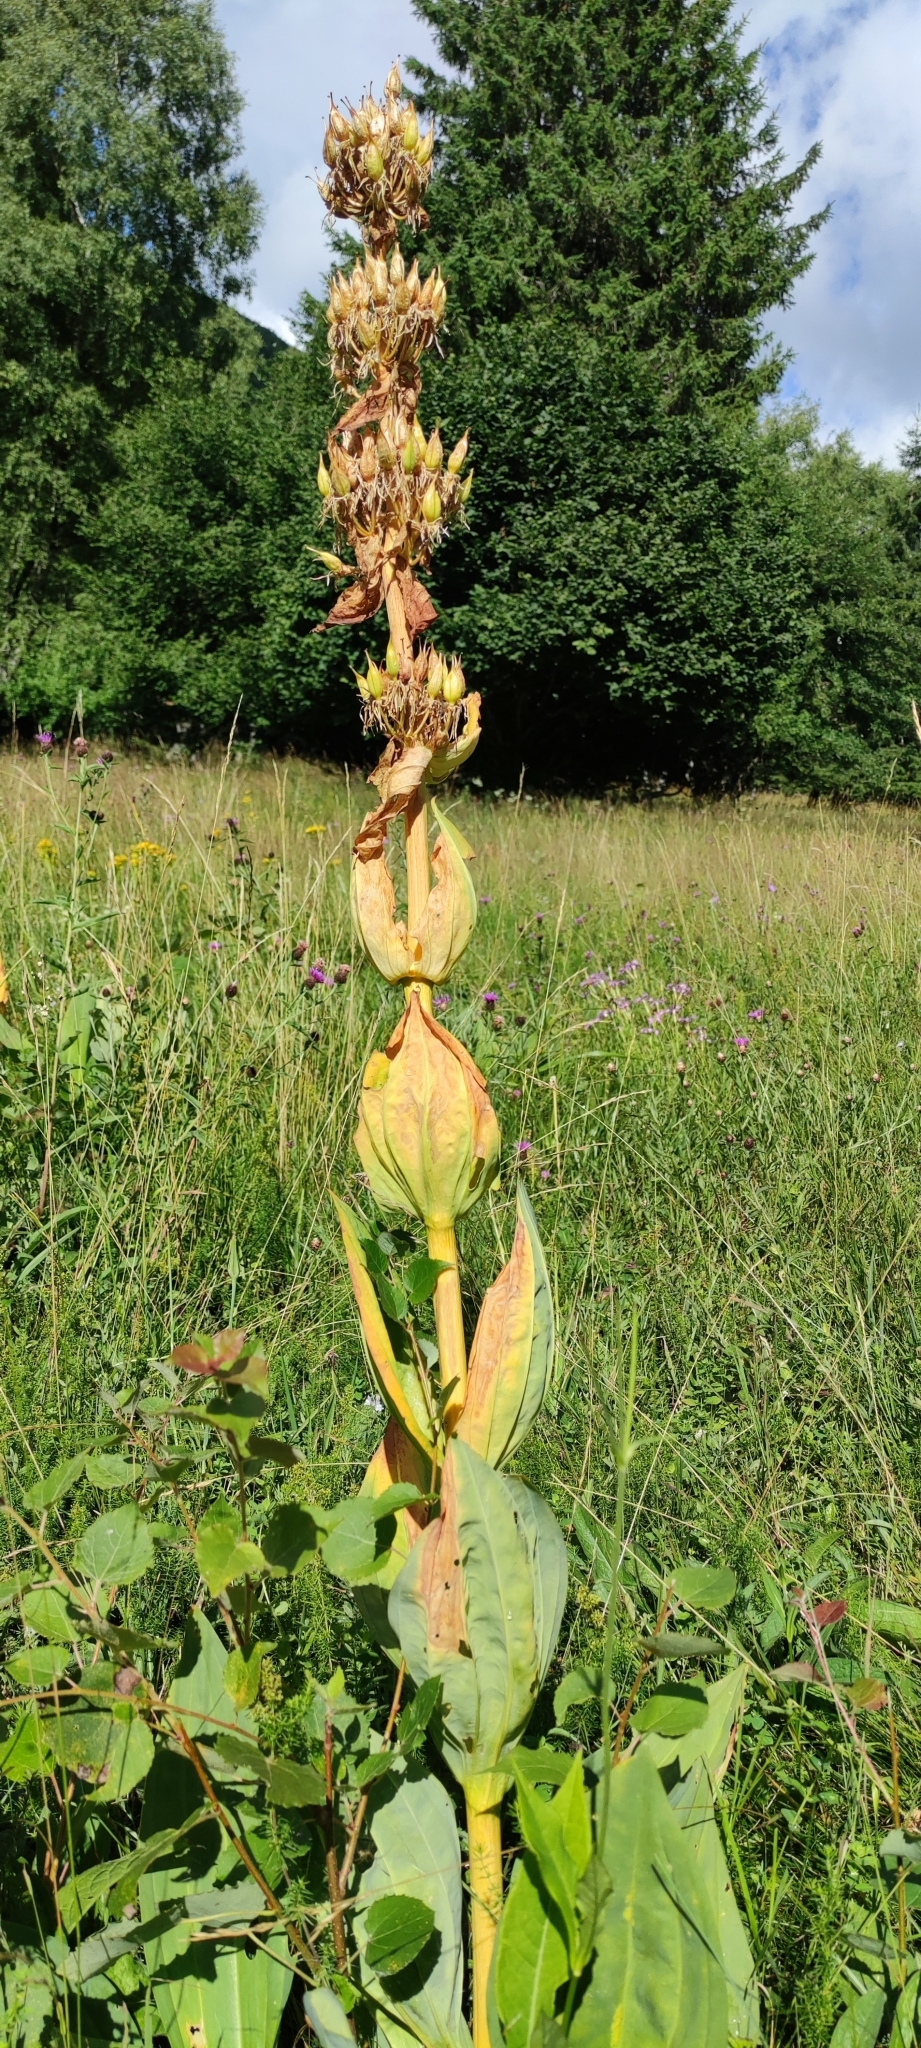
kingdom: Plantae
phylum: Tracheophyta
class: Magnoliopsida
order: Gentianales
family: Gentianaceae
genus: Gentiana
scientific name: Gentiana lutea
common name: Great yellow gentian
